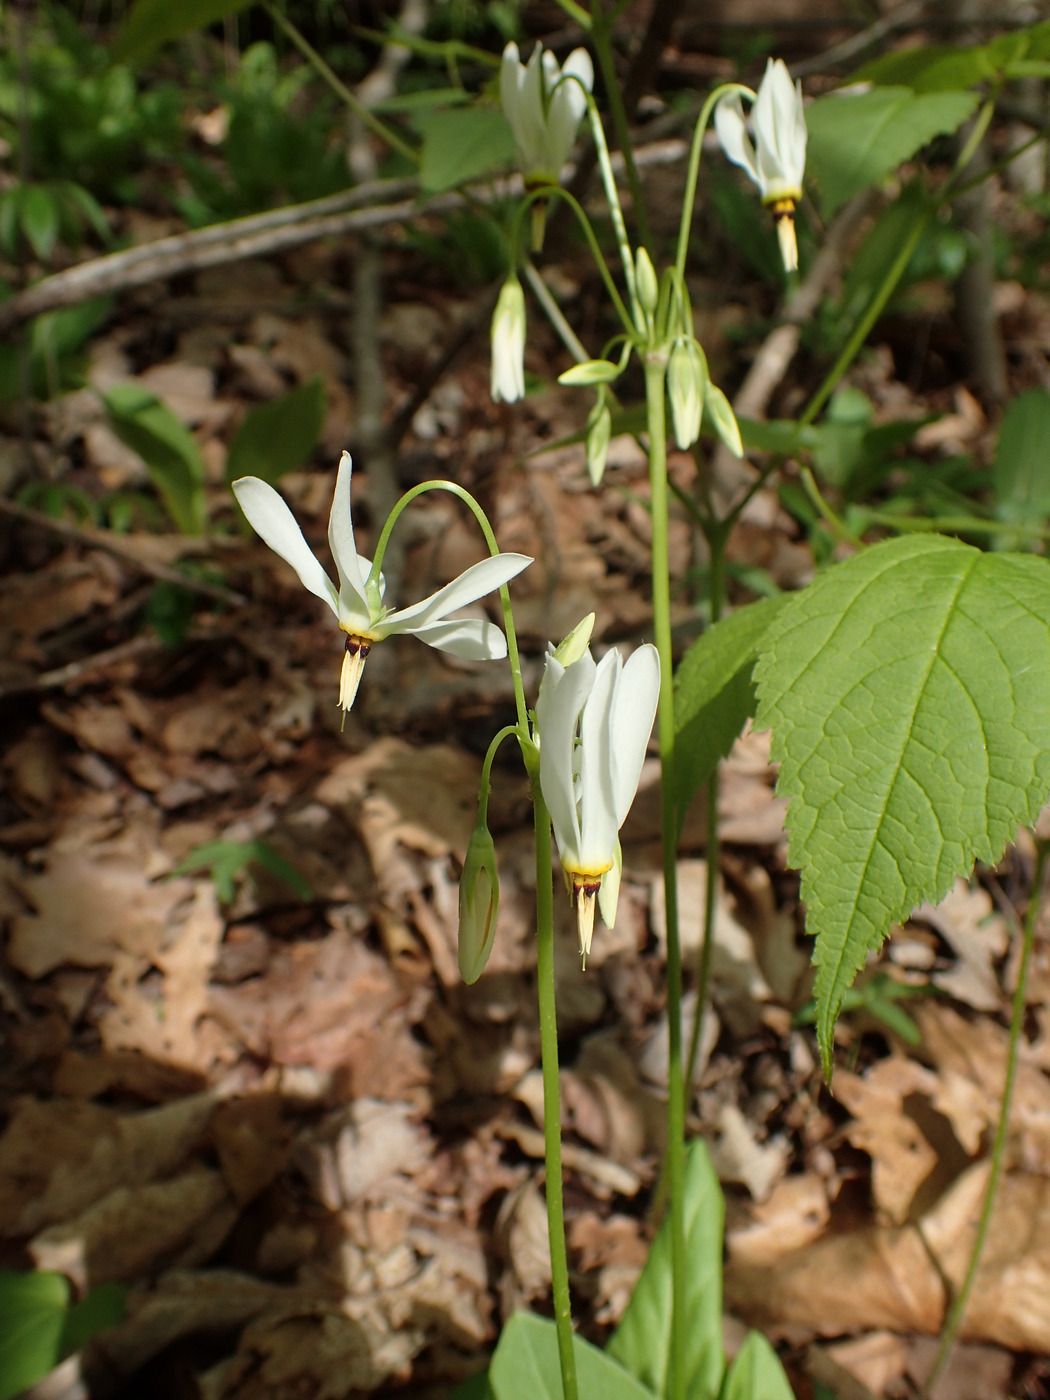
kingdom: Plantae
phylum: Tracheophyta
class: Magnoliopsida
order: Ericales
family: Primulaceae
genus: Dodecatheon
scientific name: Dodecatheon meadia
